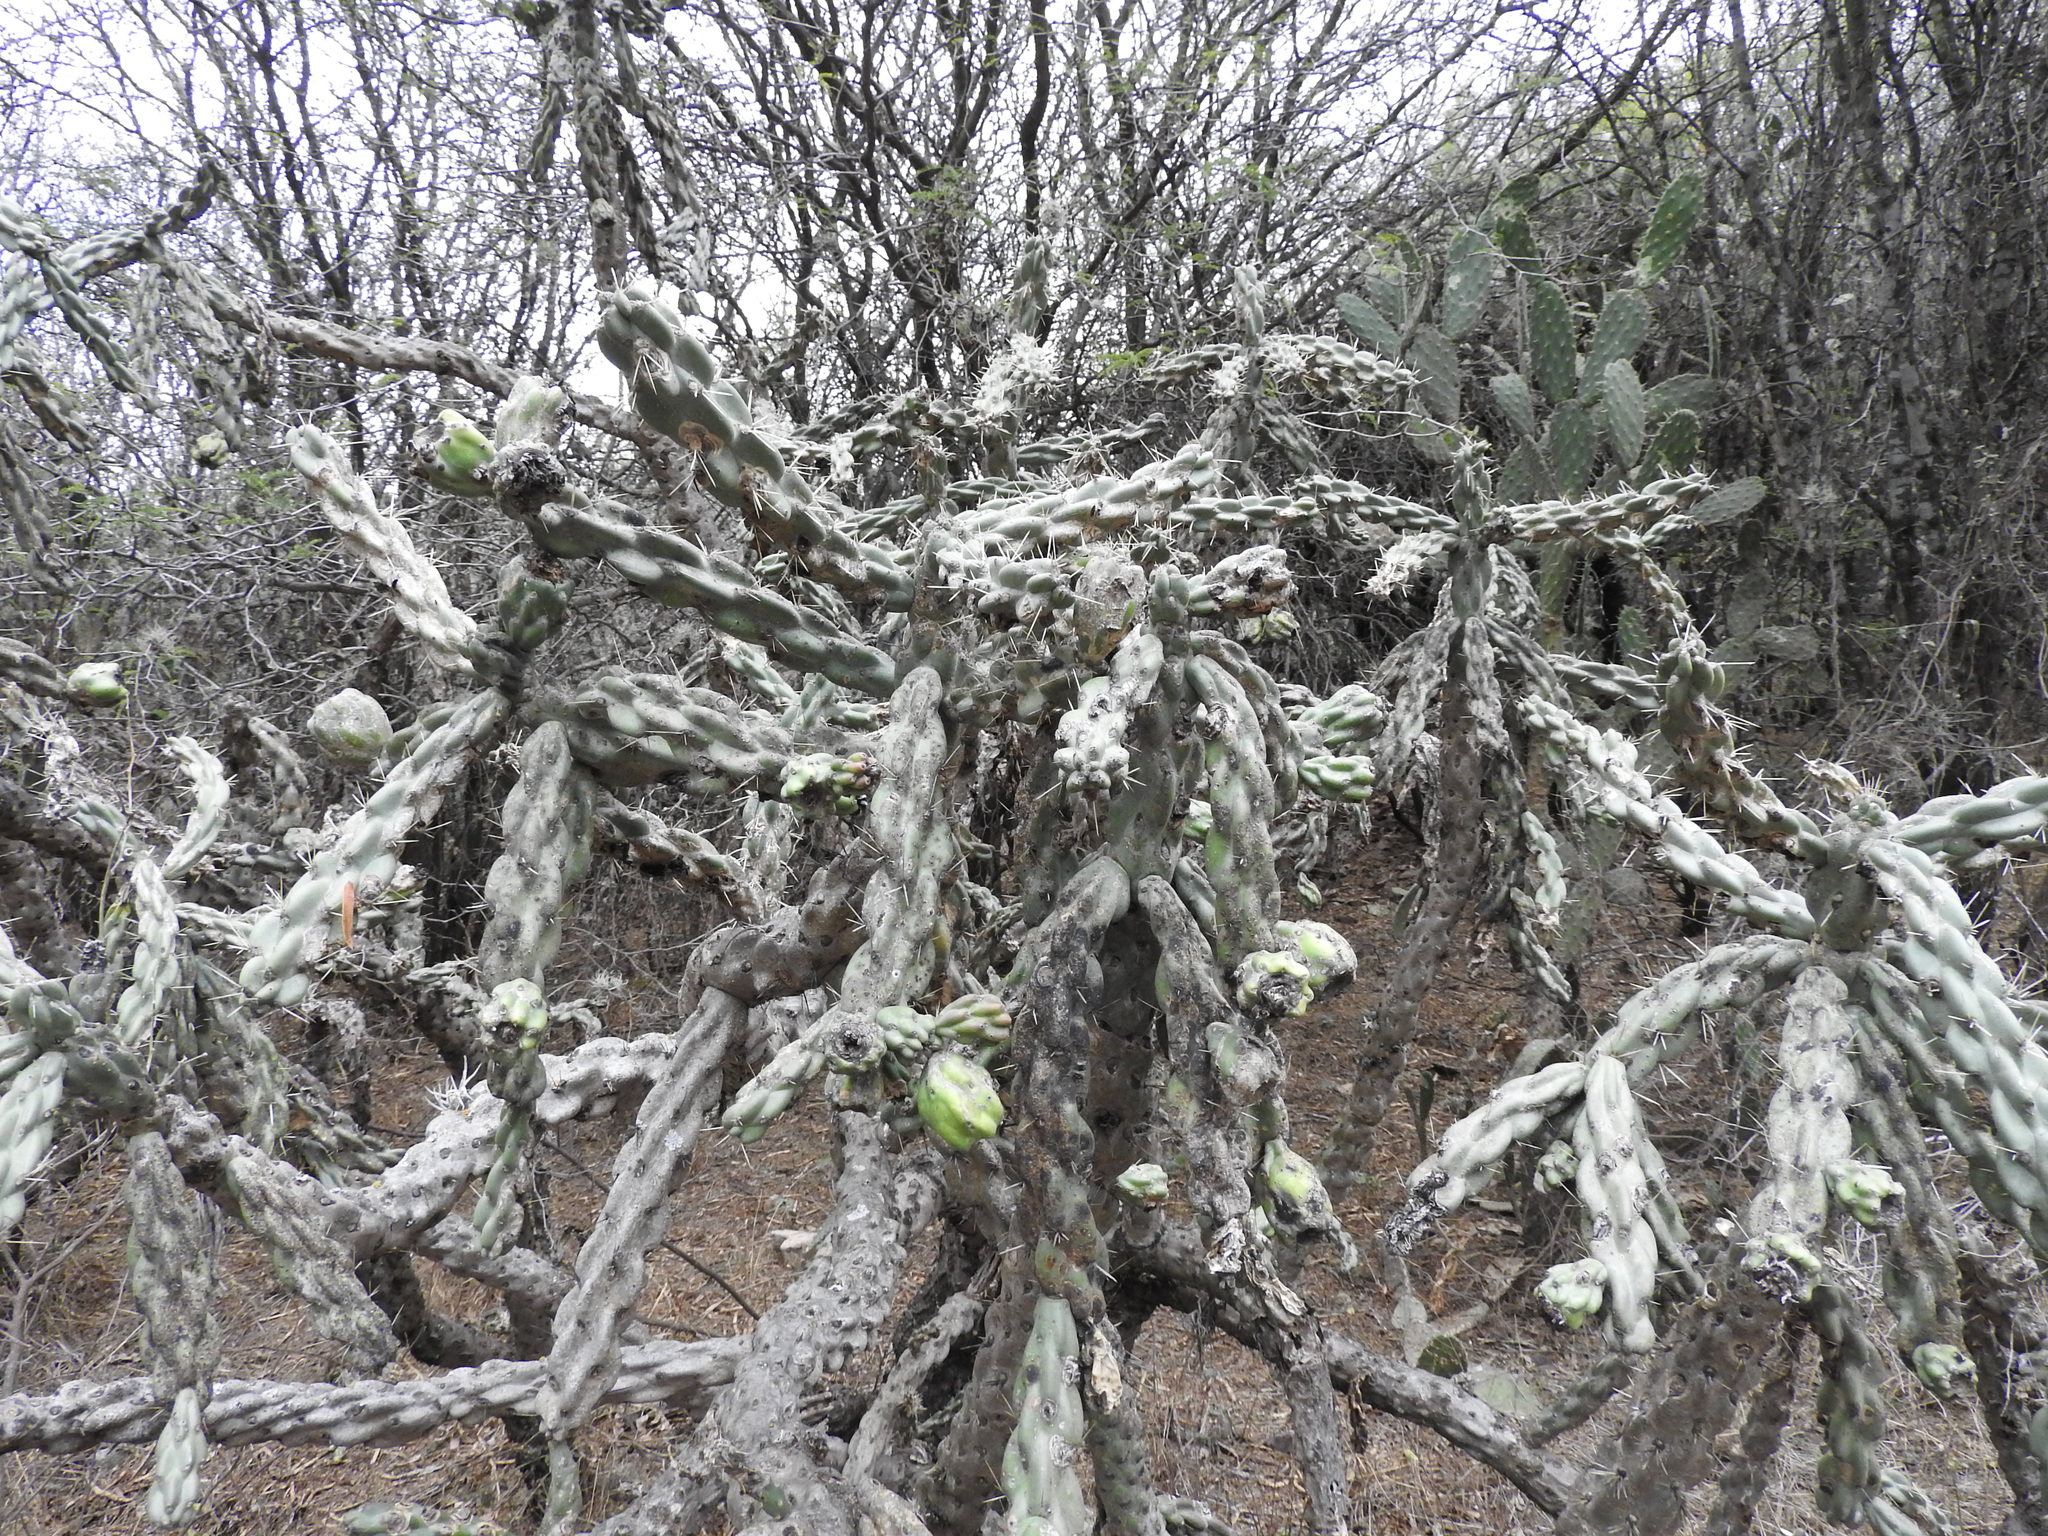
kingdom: Plantae
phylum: Tracheophyta
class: Magnoliopsida
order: Caryophyllales
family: Cactaceae
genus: Cylindropuntia
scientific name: Cylindropuntia imbricata
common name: Candelabrum cactus
